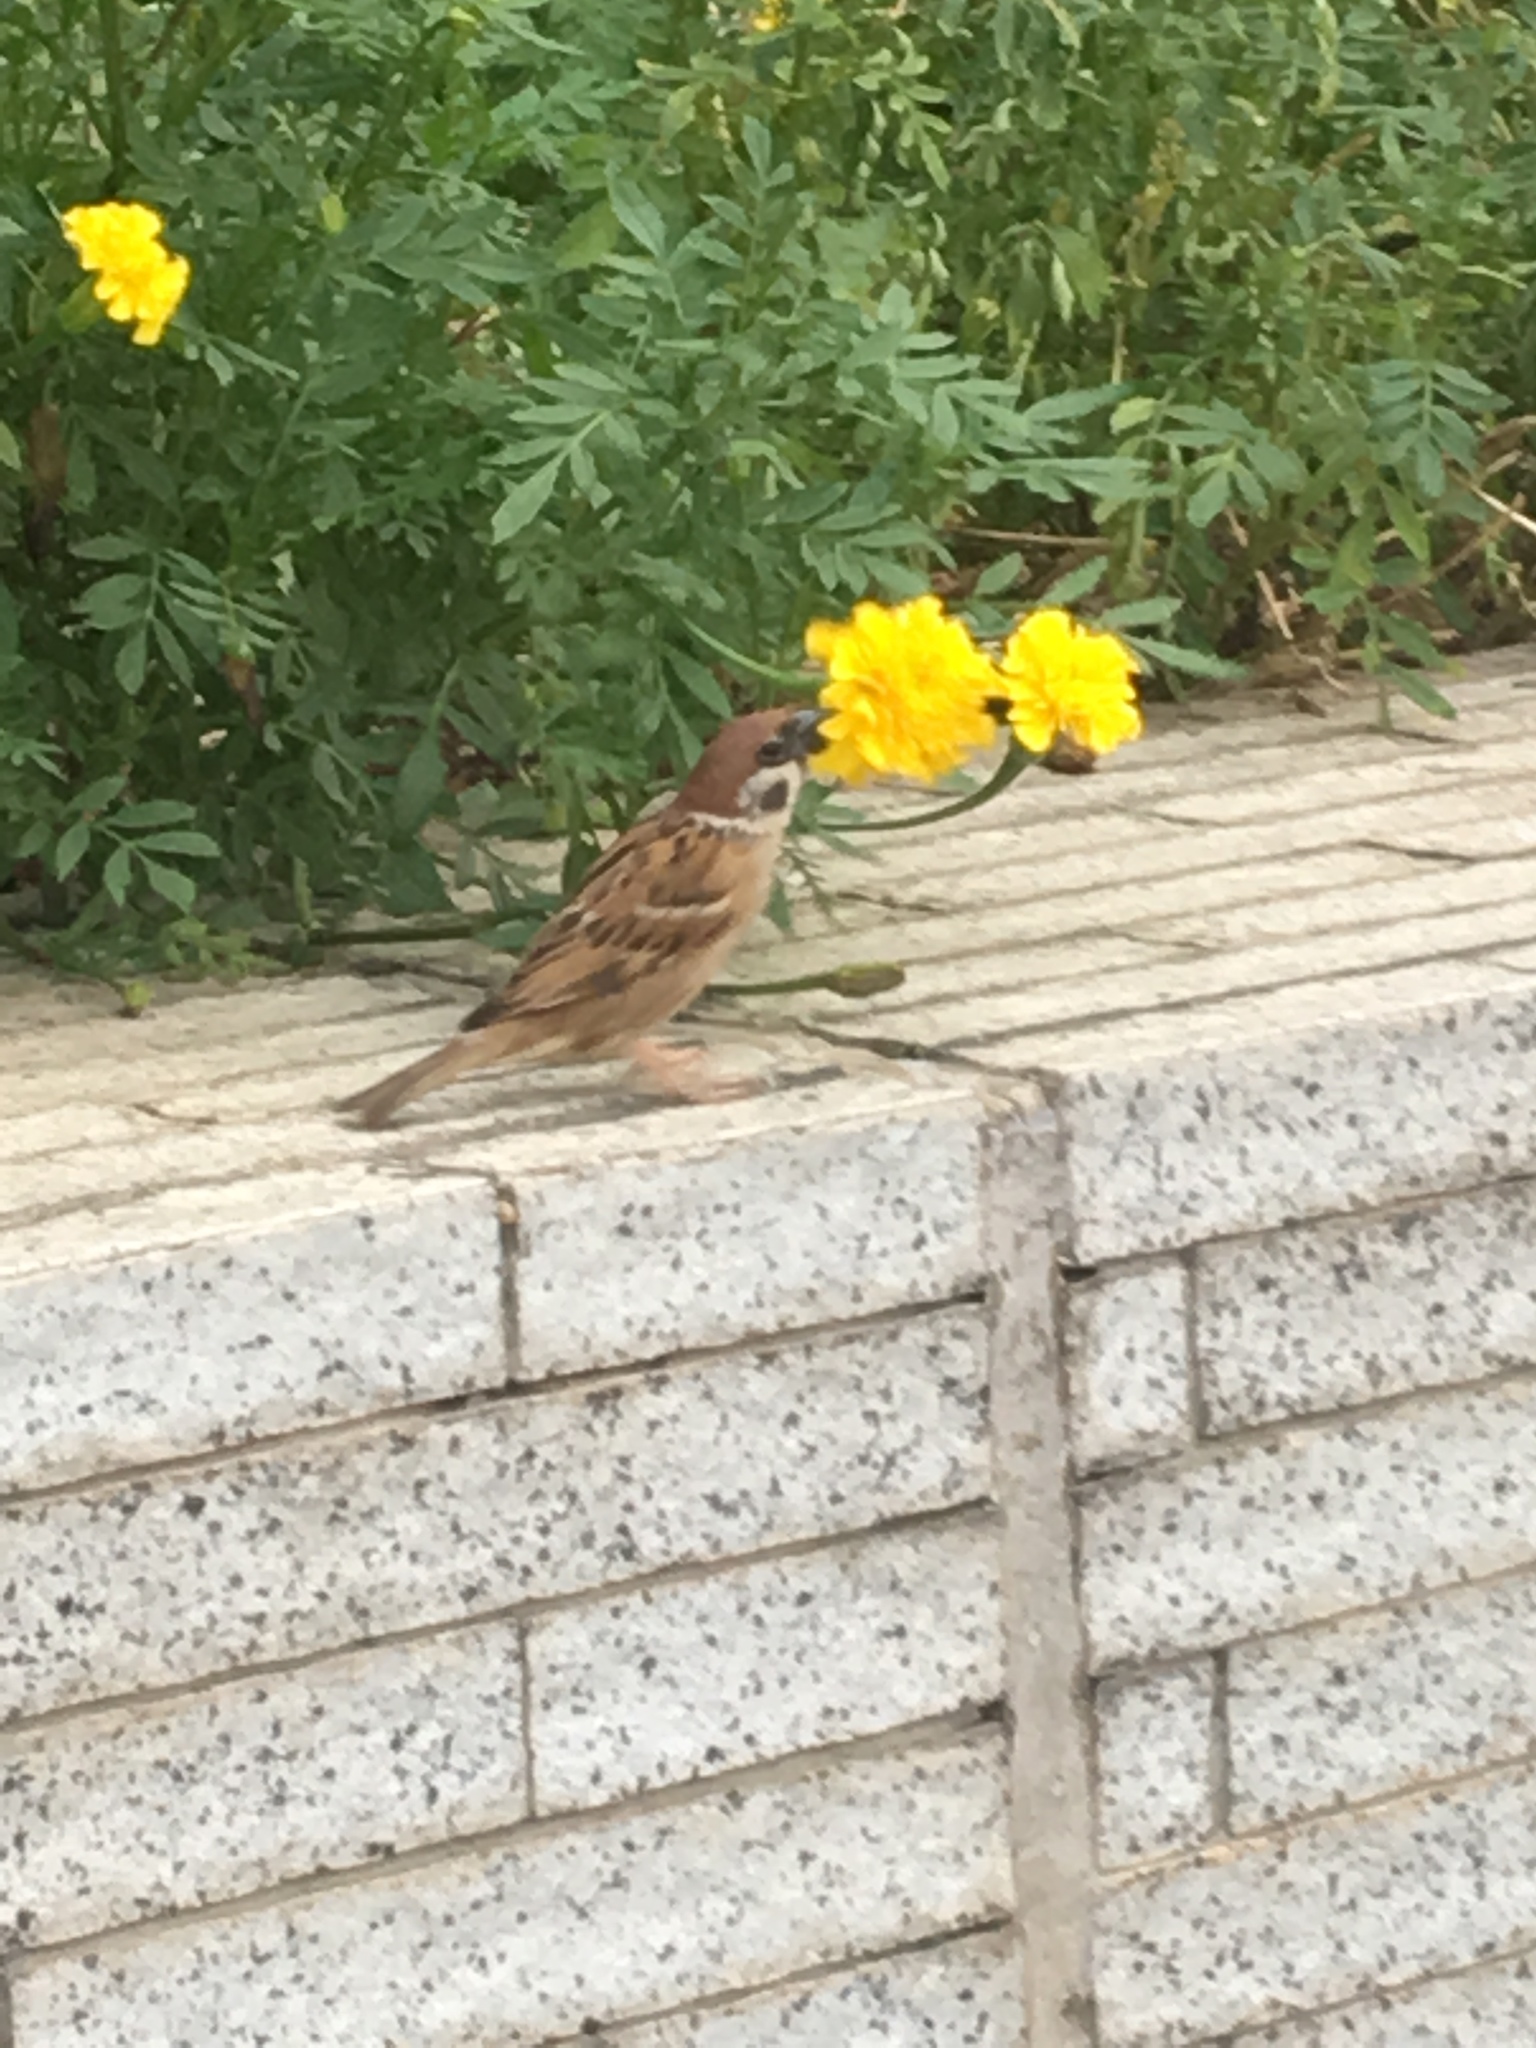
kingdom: Animalia
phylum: Chordata
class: Aves
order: Passeriformes
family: Passeridae
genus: Passer
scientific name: Passer montanus
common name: Eurasian tree sparrow
